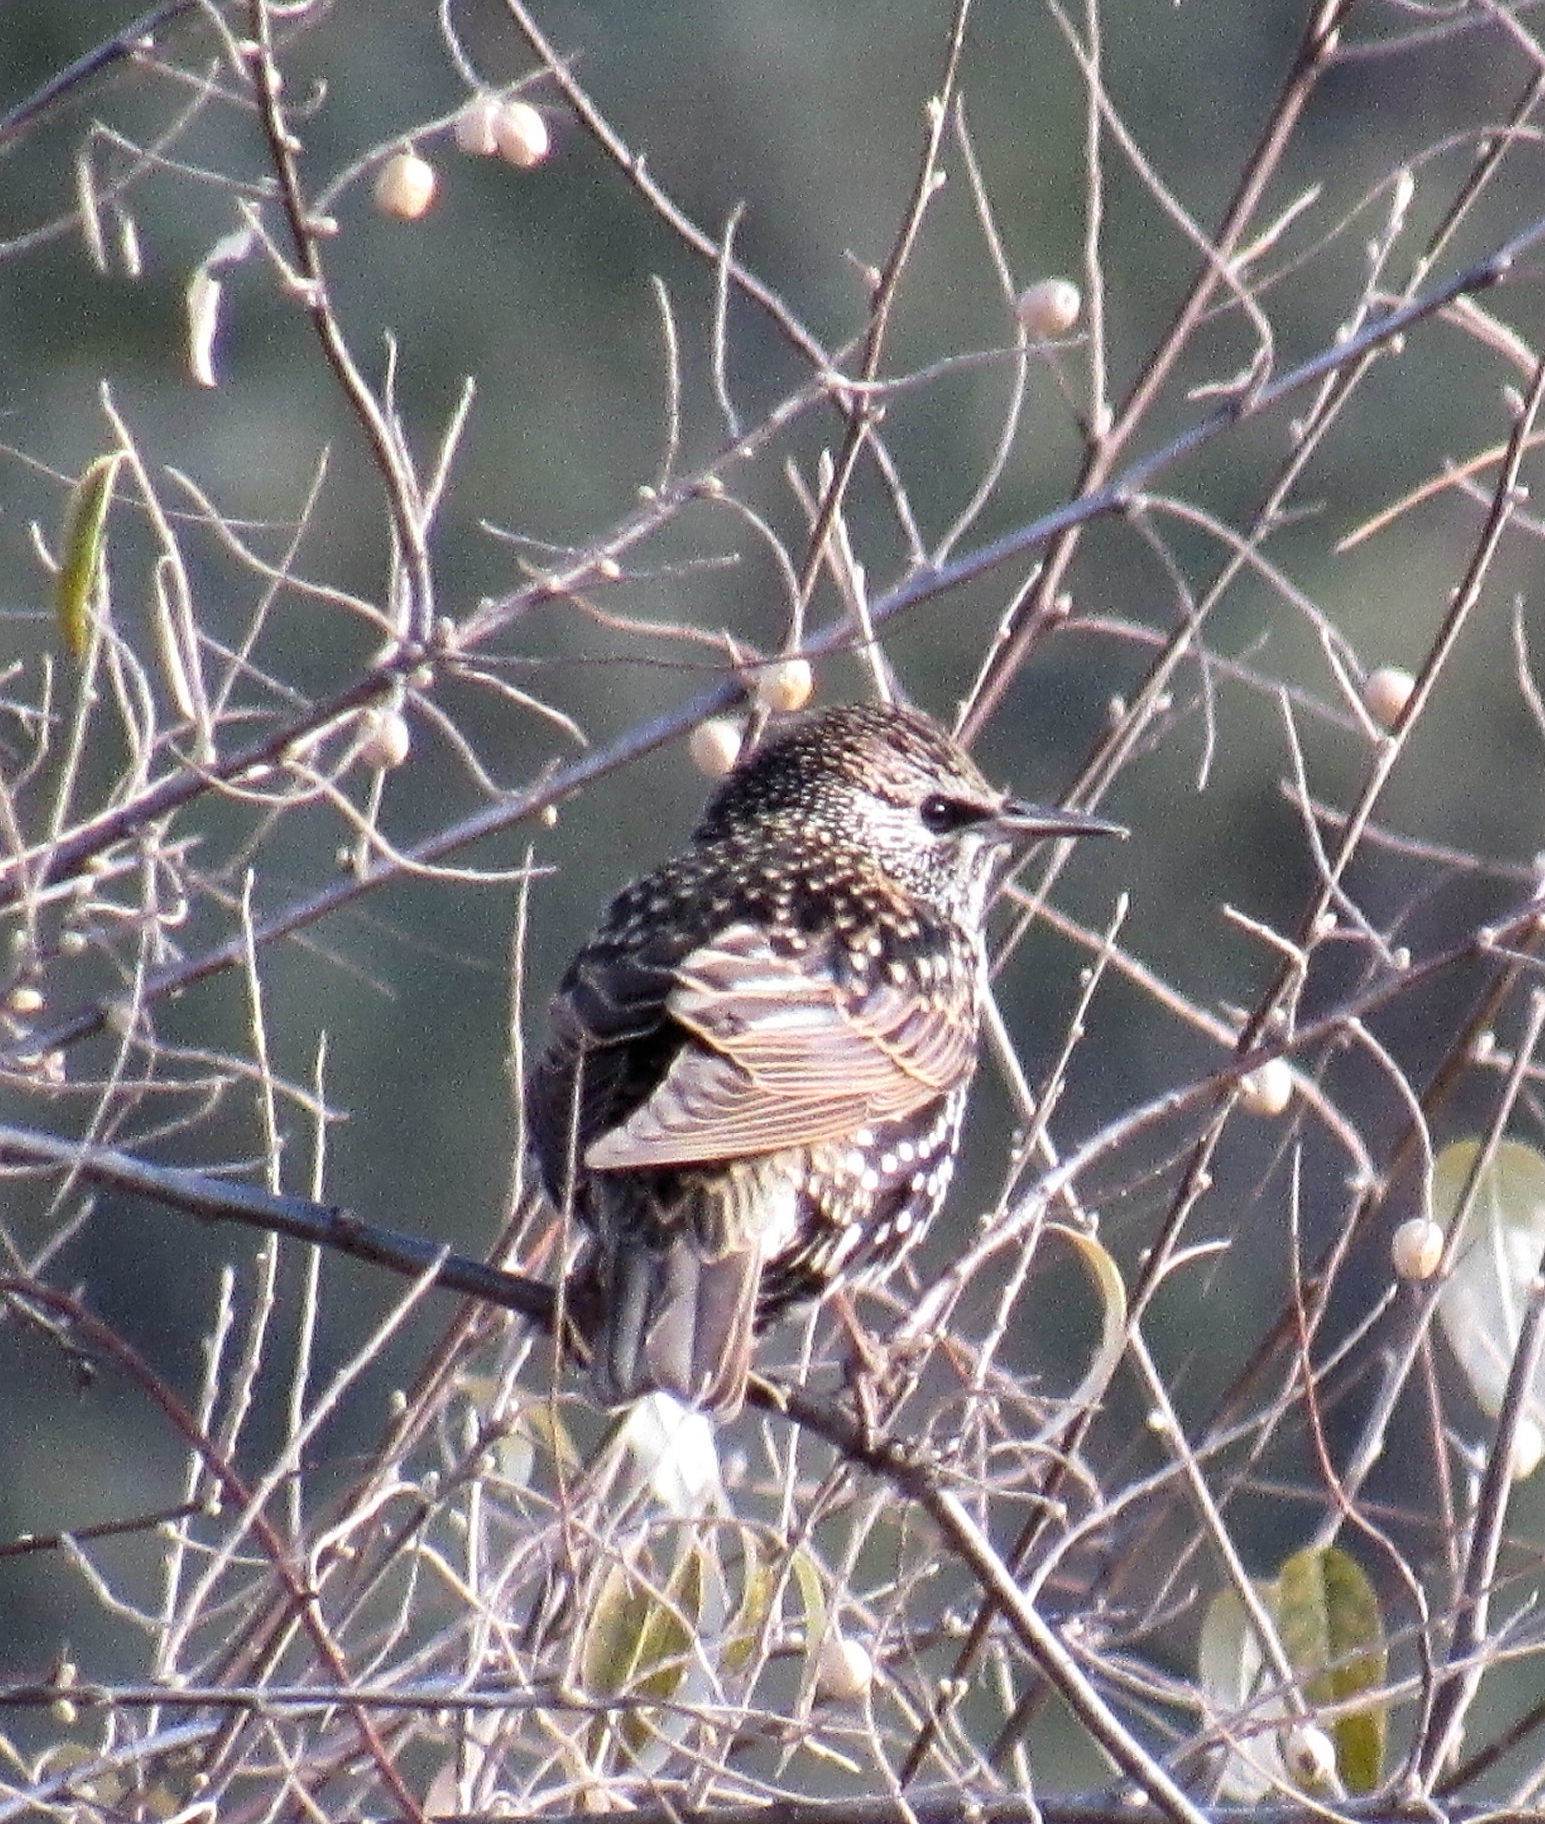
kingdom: Animalia
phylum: Chordata
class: Aves
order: Passeriformes
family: Sturnidae
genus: Sturnus
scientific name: Sturnus vulgaris
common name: Common starling
